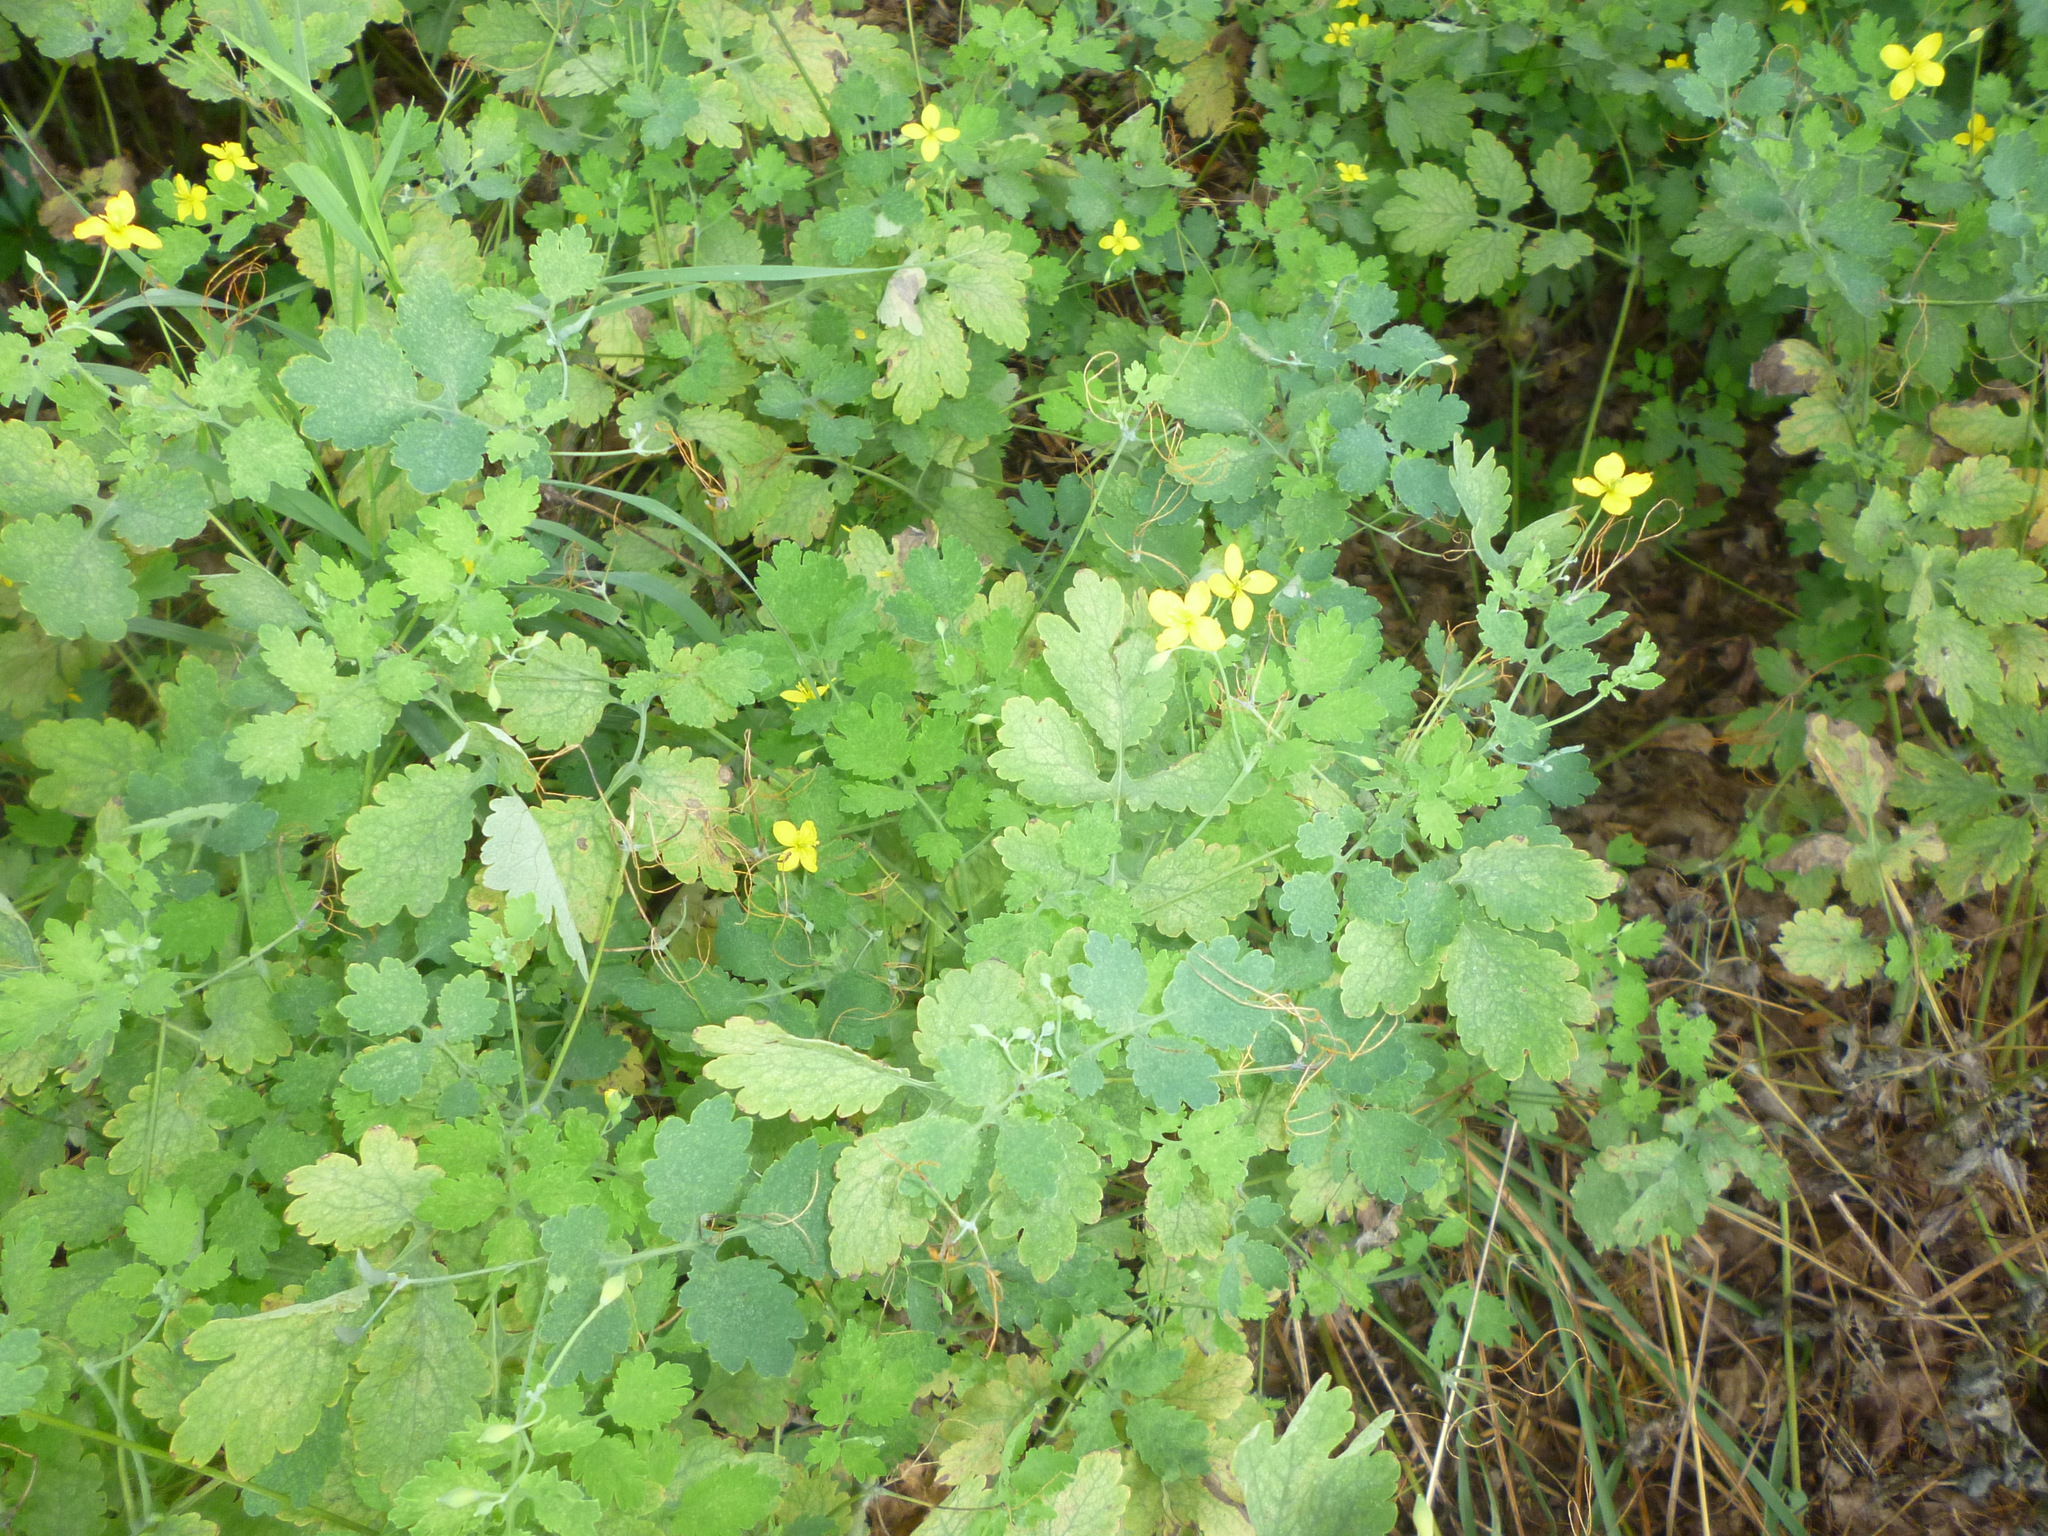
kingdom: Plantae
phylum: Tracheophyta
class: Magnoliopsida
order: Ranunculales
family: Papaveraceae
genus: Chelidonium
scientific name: Chelidonium majus
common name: Greater celandine
